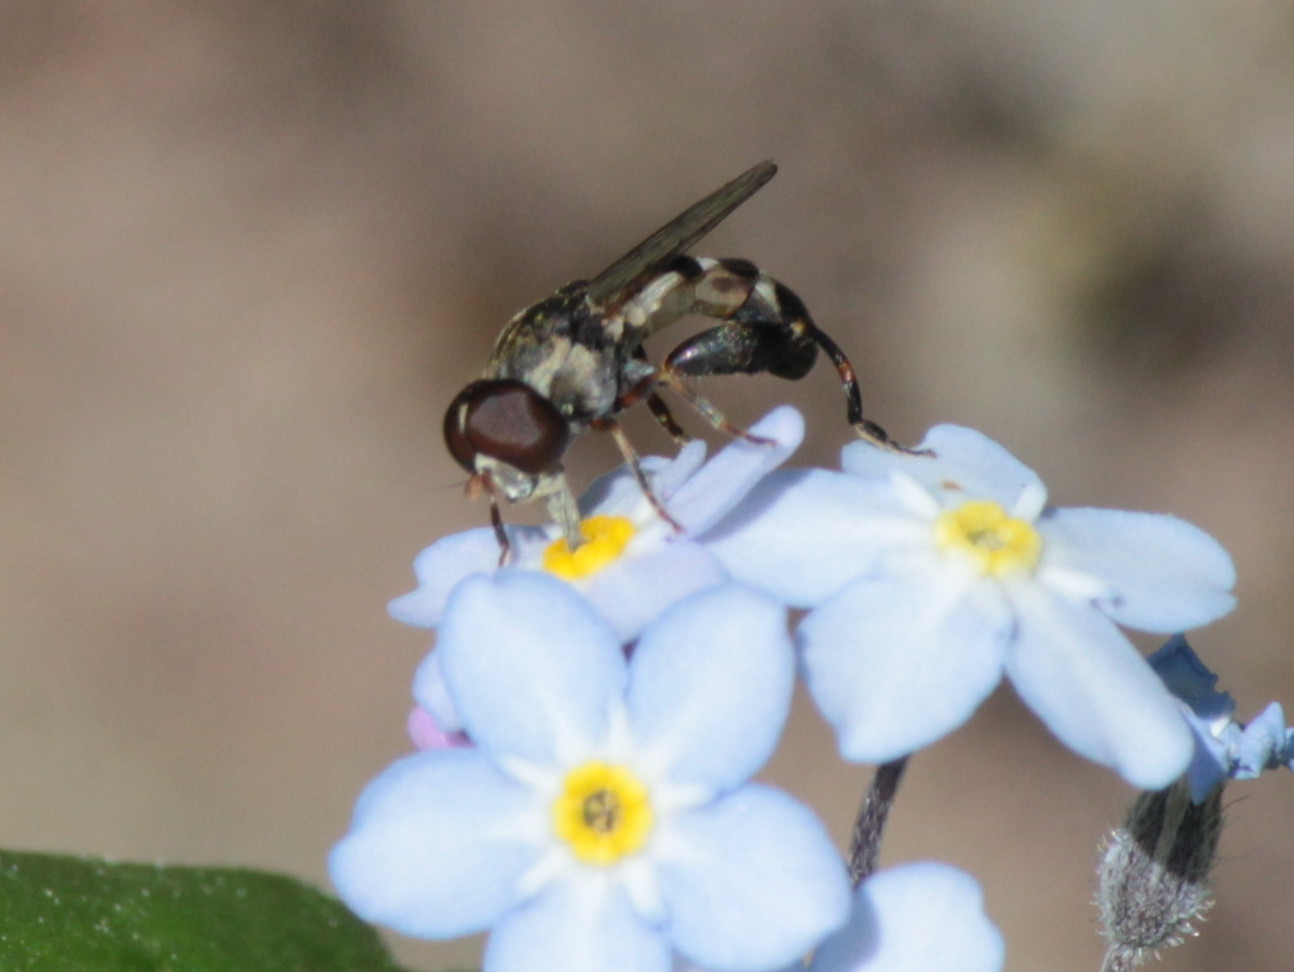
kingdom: Animalia
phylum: Arthropoda
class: Insecta
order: Diptera
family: Syrphidae
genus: Syritta
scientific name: Syritta pipiens
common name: Hover fly
